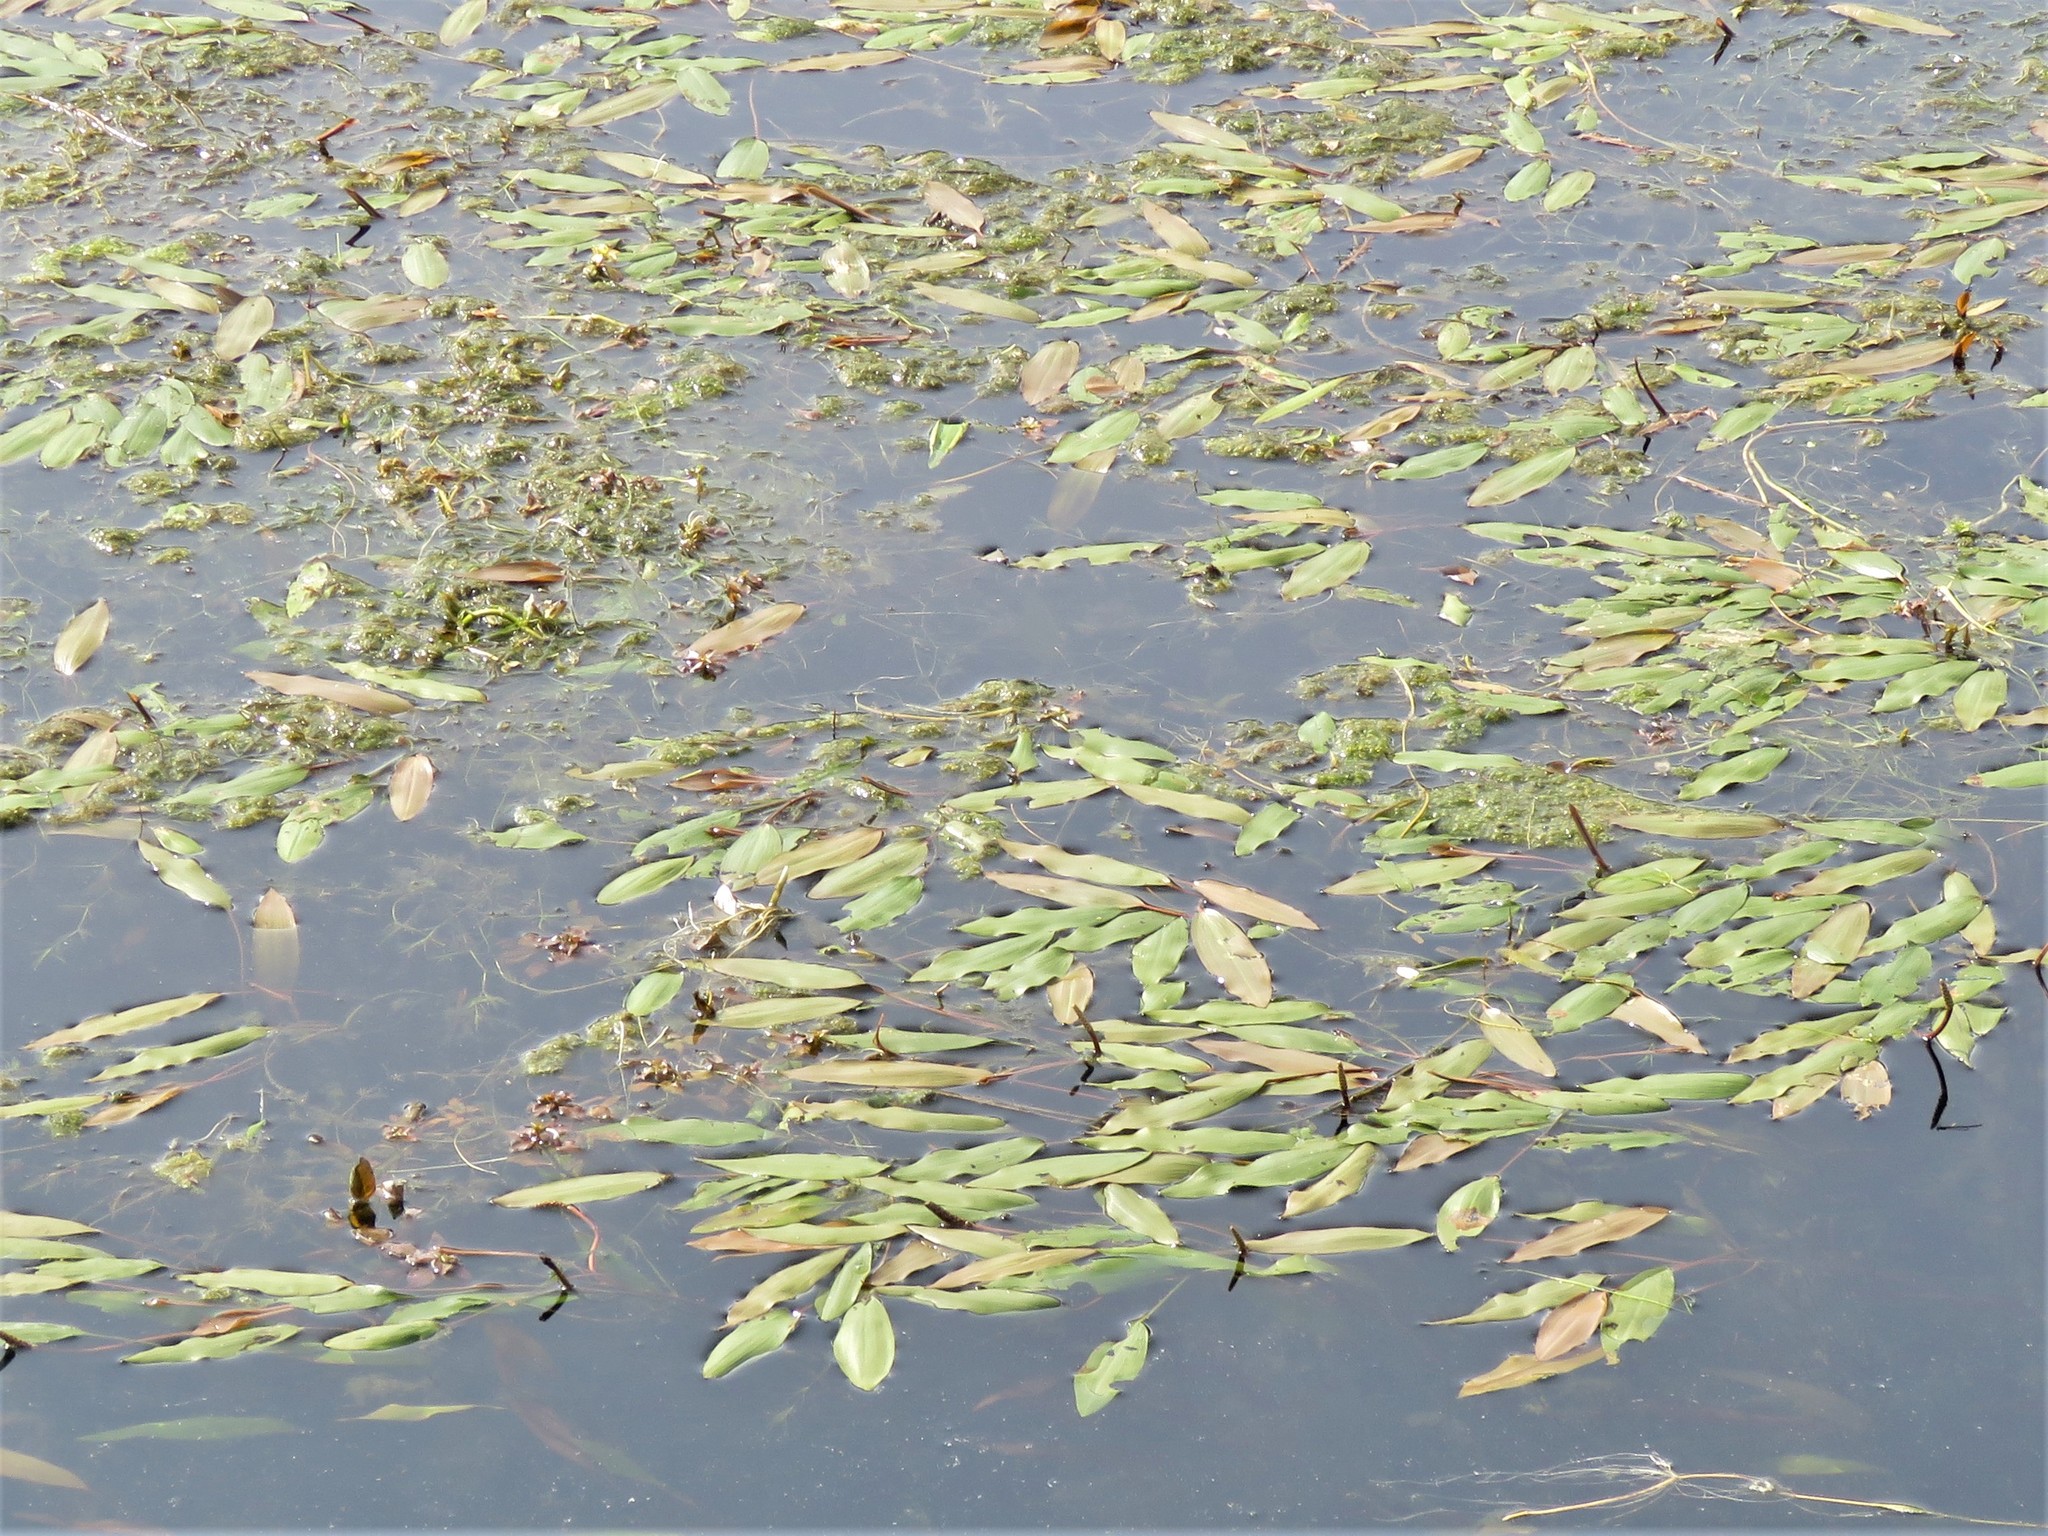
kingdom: Plantae
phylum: Tracheophyta
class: Liliopsida
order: Alismatales
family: Potamogetonaceae
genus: Potamogeton
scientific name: Potamogeton nodosus
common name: Loddon pondweed
